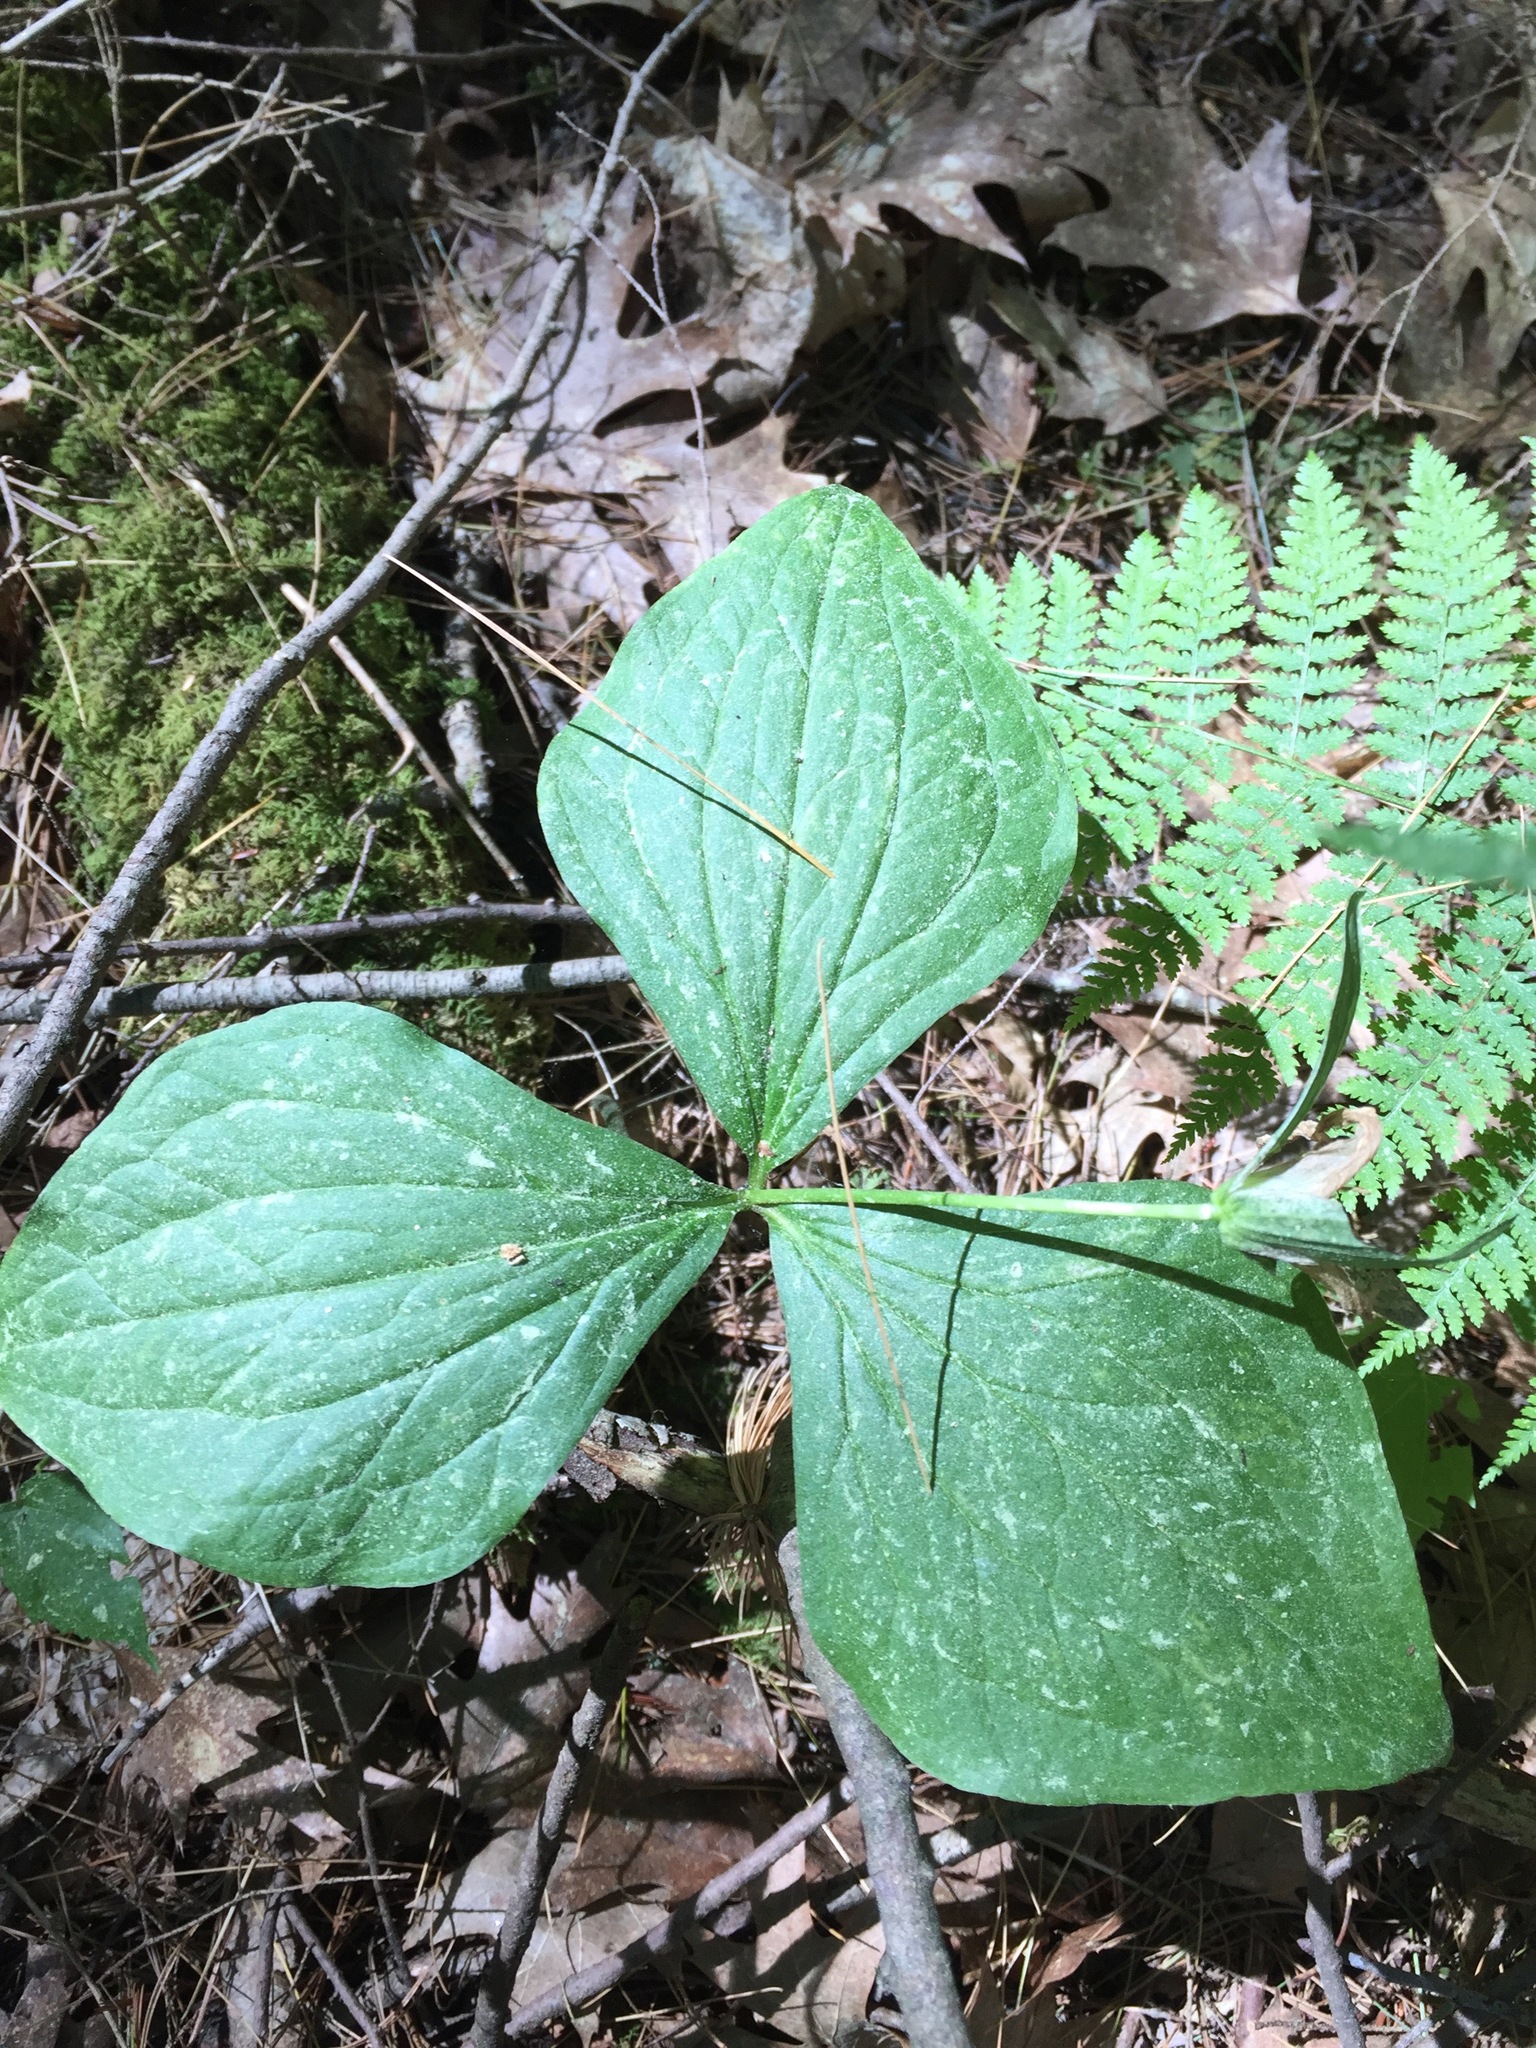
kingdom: Plantae
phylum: Tracheophyta
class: Liliopsida
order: Liliales
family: Melanthiaceae
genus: Trillium
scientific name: Trillium grandiflorum
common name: Great white trillium
